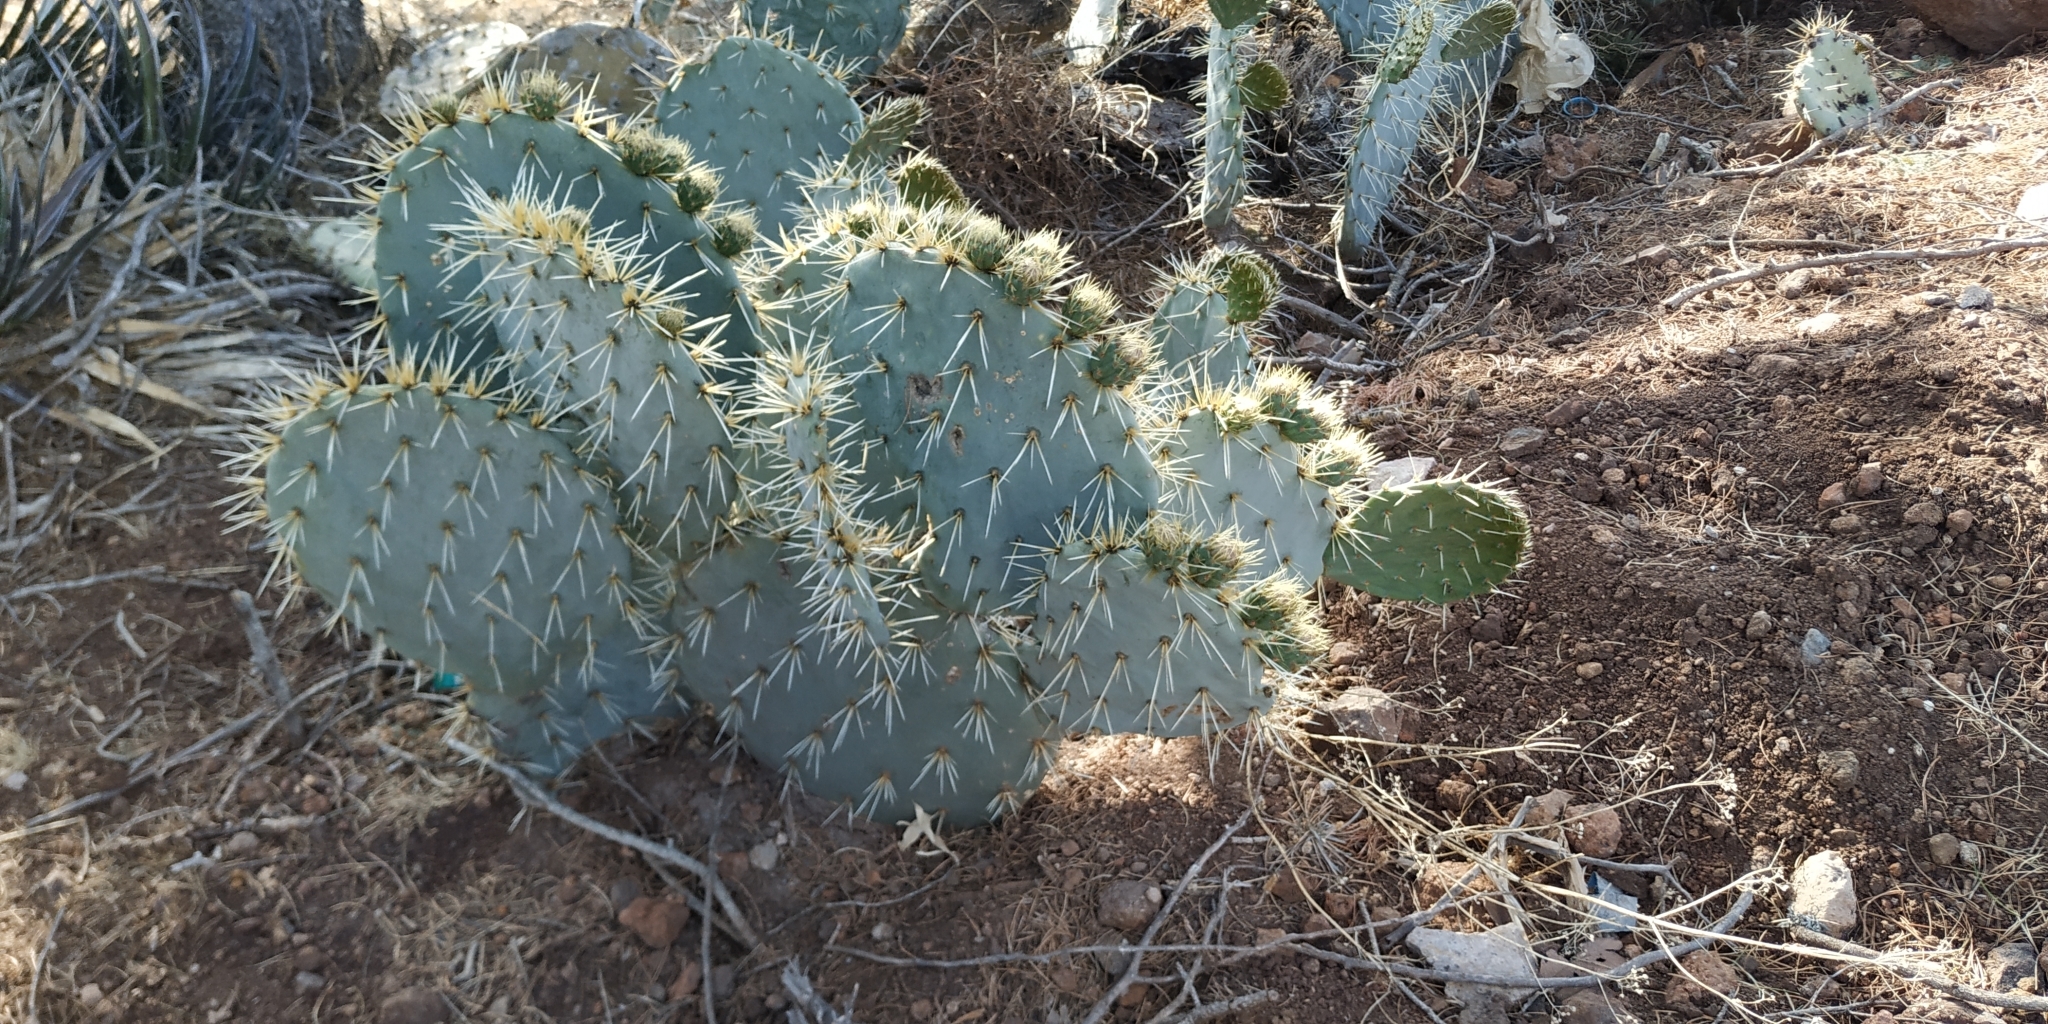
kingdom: Plantae
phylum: Tracheophyta
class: Magnoliopsida
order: Caryophyllales
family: Cactaceae
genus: Opuntia
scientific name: Opuntia robusta
